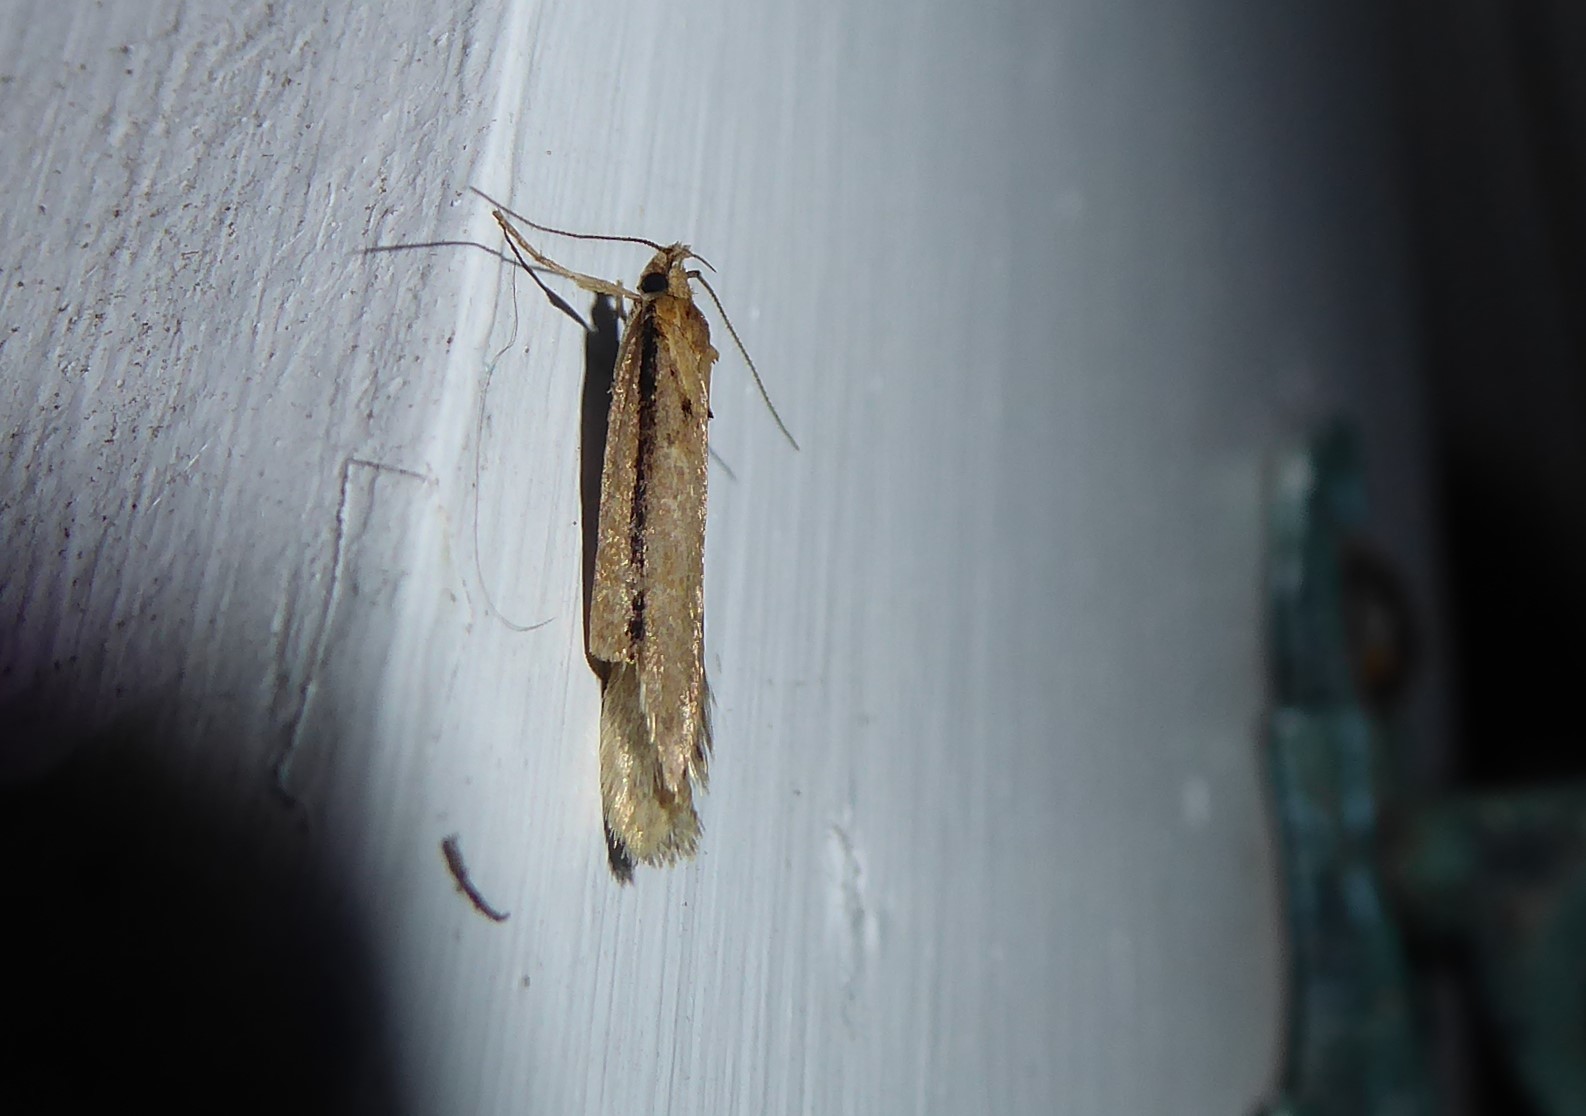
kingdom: Animalia
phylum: Arthropoda
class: Insecta
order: Lepidoptera
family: Oecophoridae
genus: Atomotricha
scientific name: Atomotricha versuta
